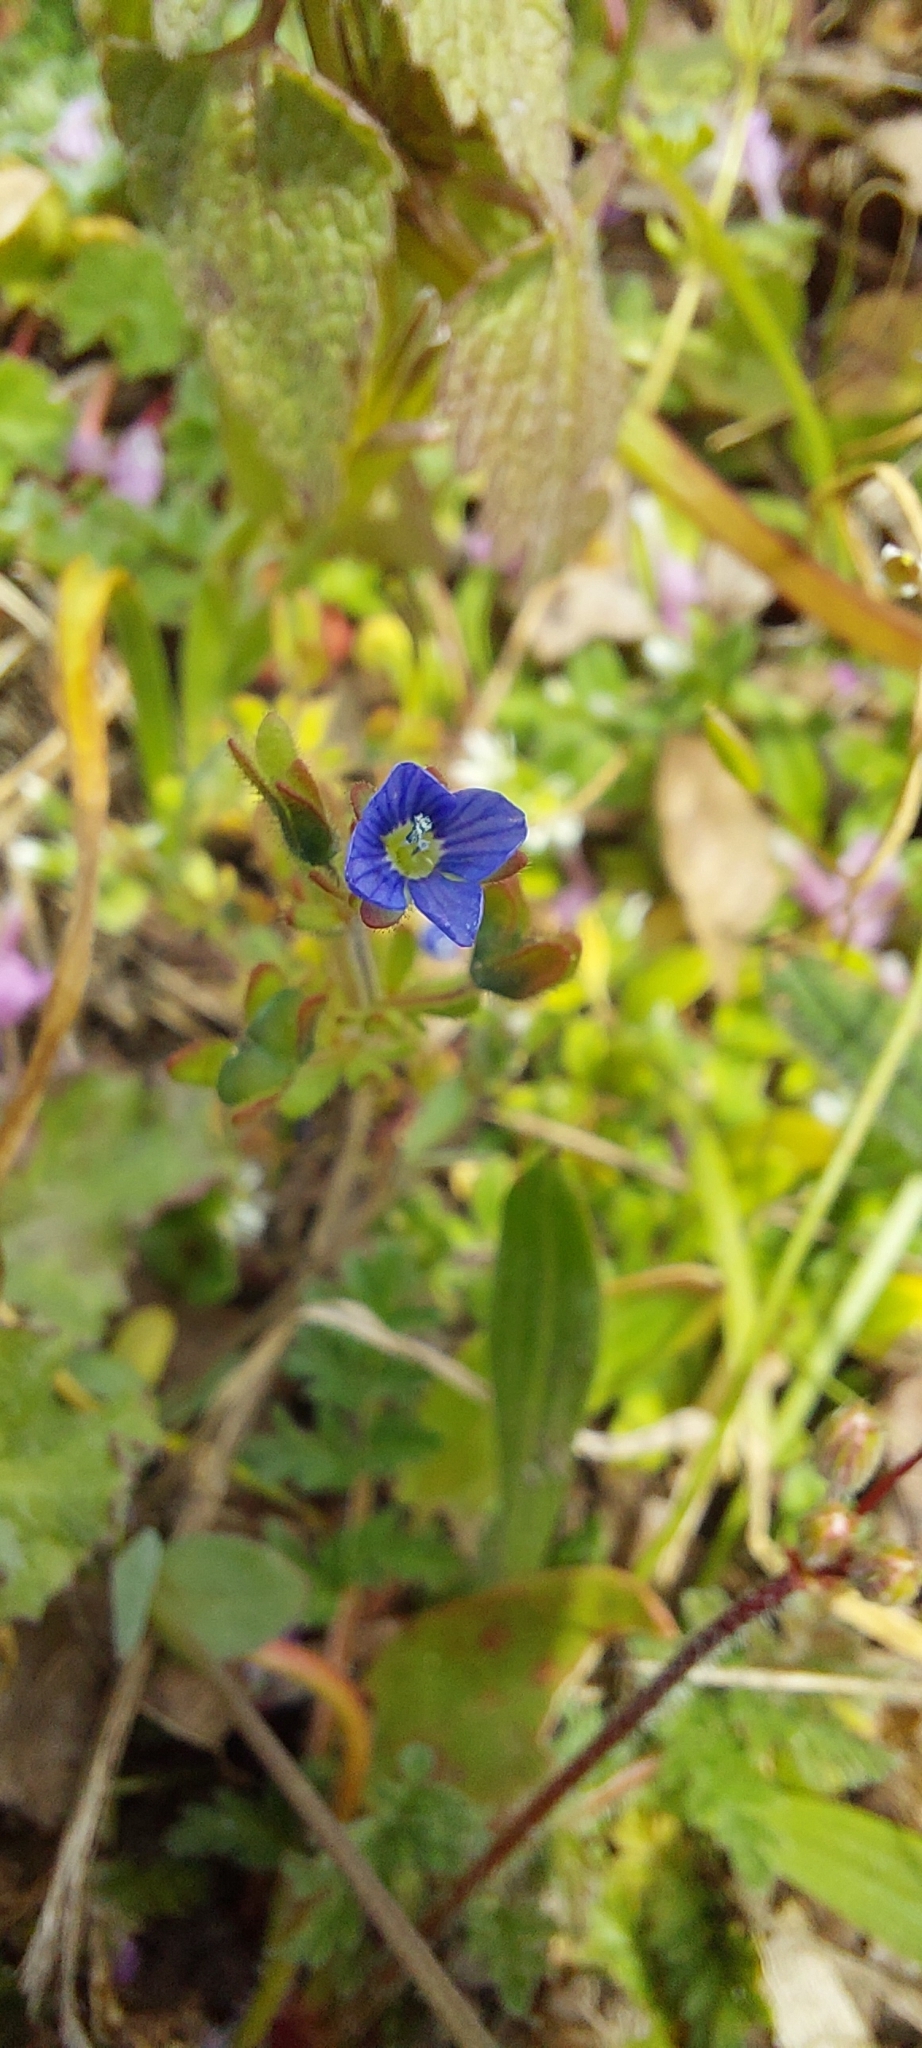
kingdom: Plantae
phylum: Tracheophyta
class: Magnoliopsida
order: Lamiales
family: Plantaginaceae
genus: Veronica
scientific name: Veronica triphyllos
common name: Fingered speedwell
